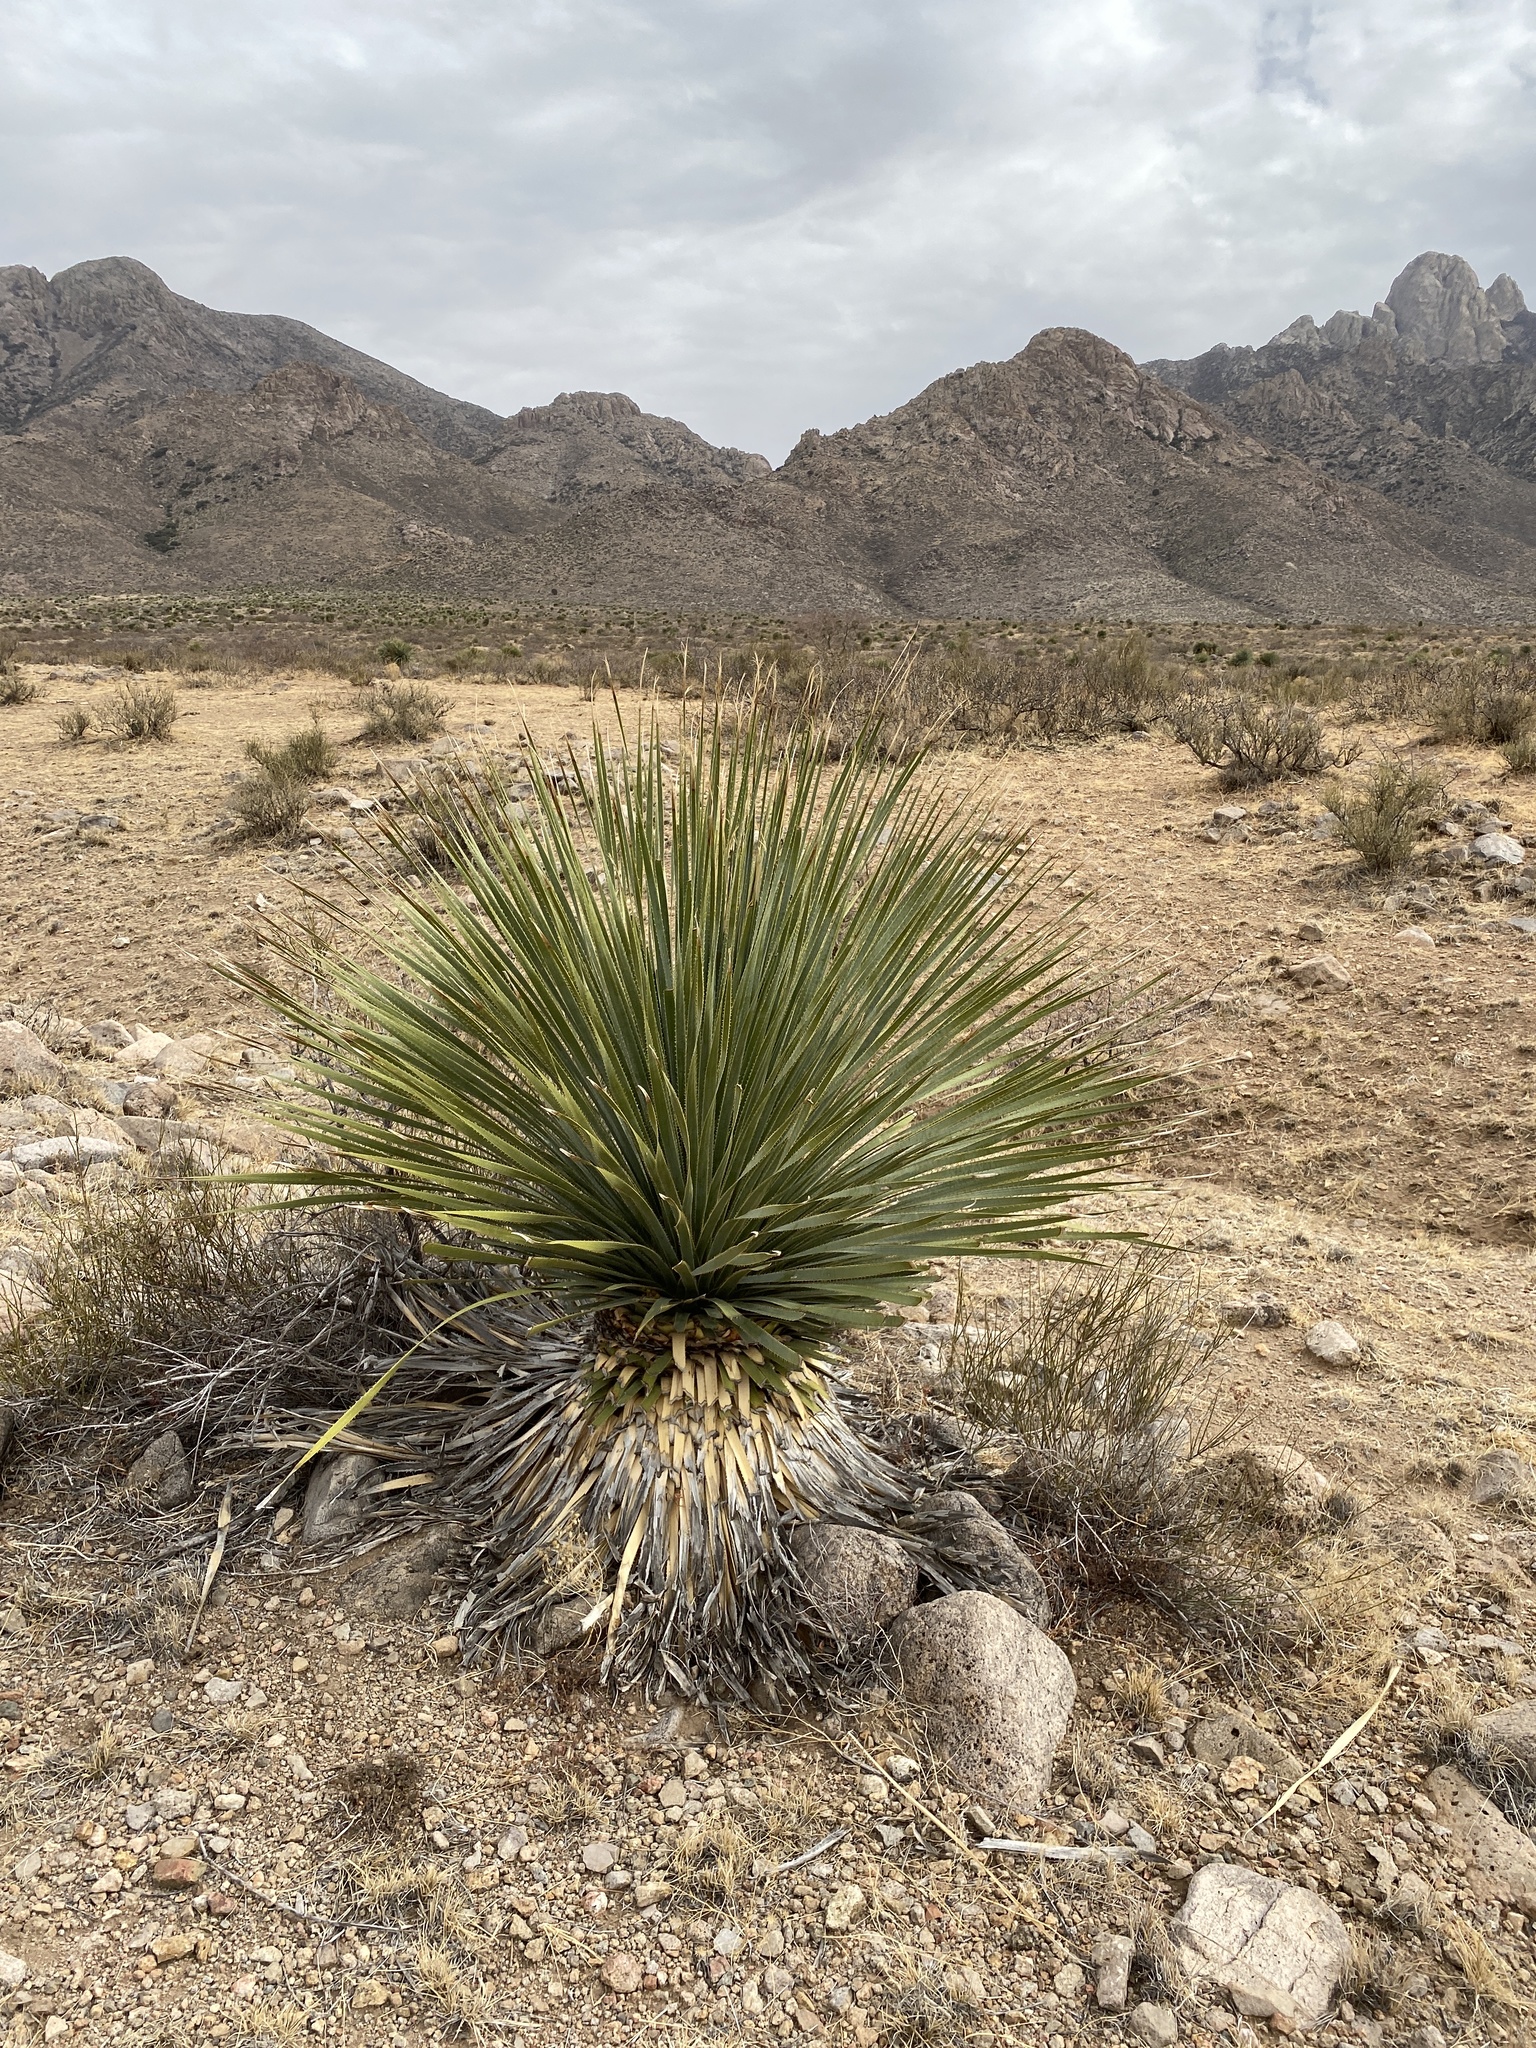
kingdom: Plantae
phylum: Tracheophyta
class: Liliopsida
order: Asparagales
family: Asparagaceae
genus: Dasylirion
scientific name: Dasylirion wheeleri
